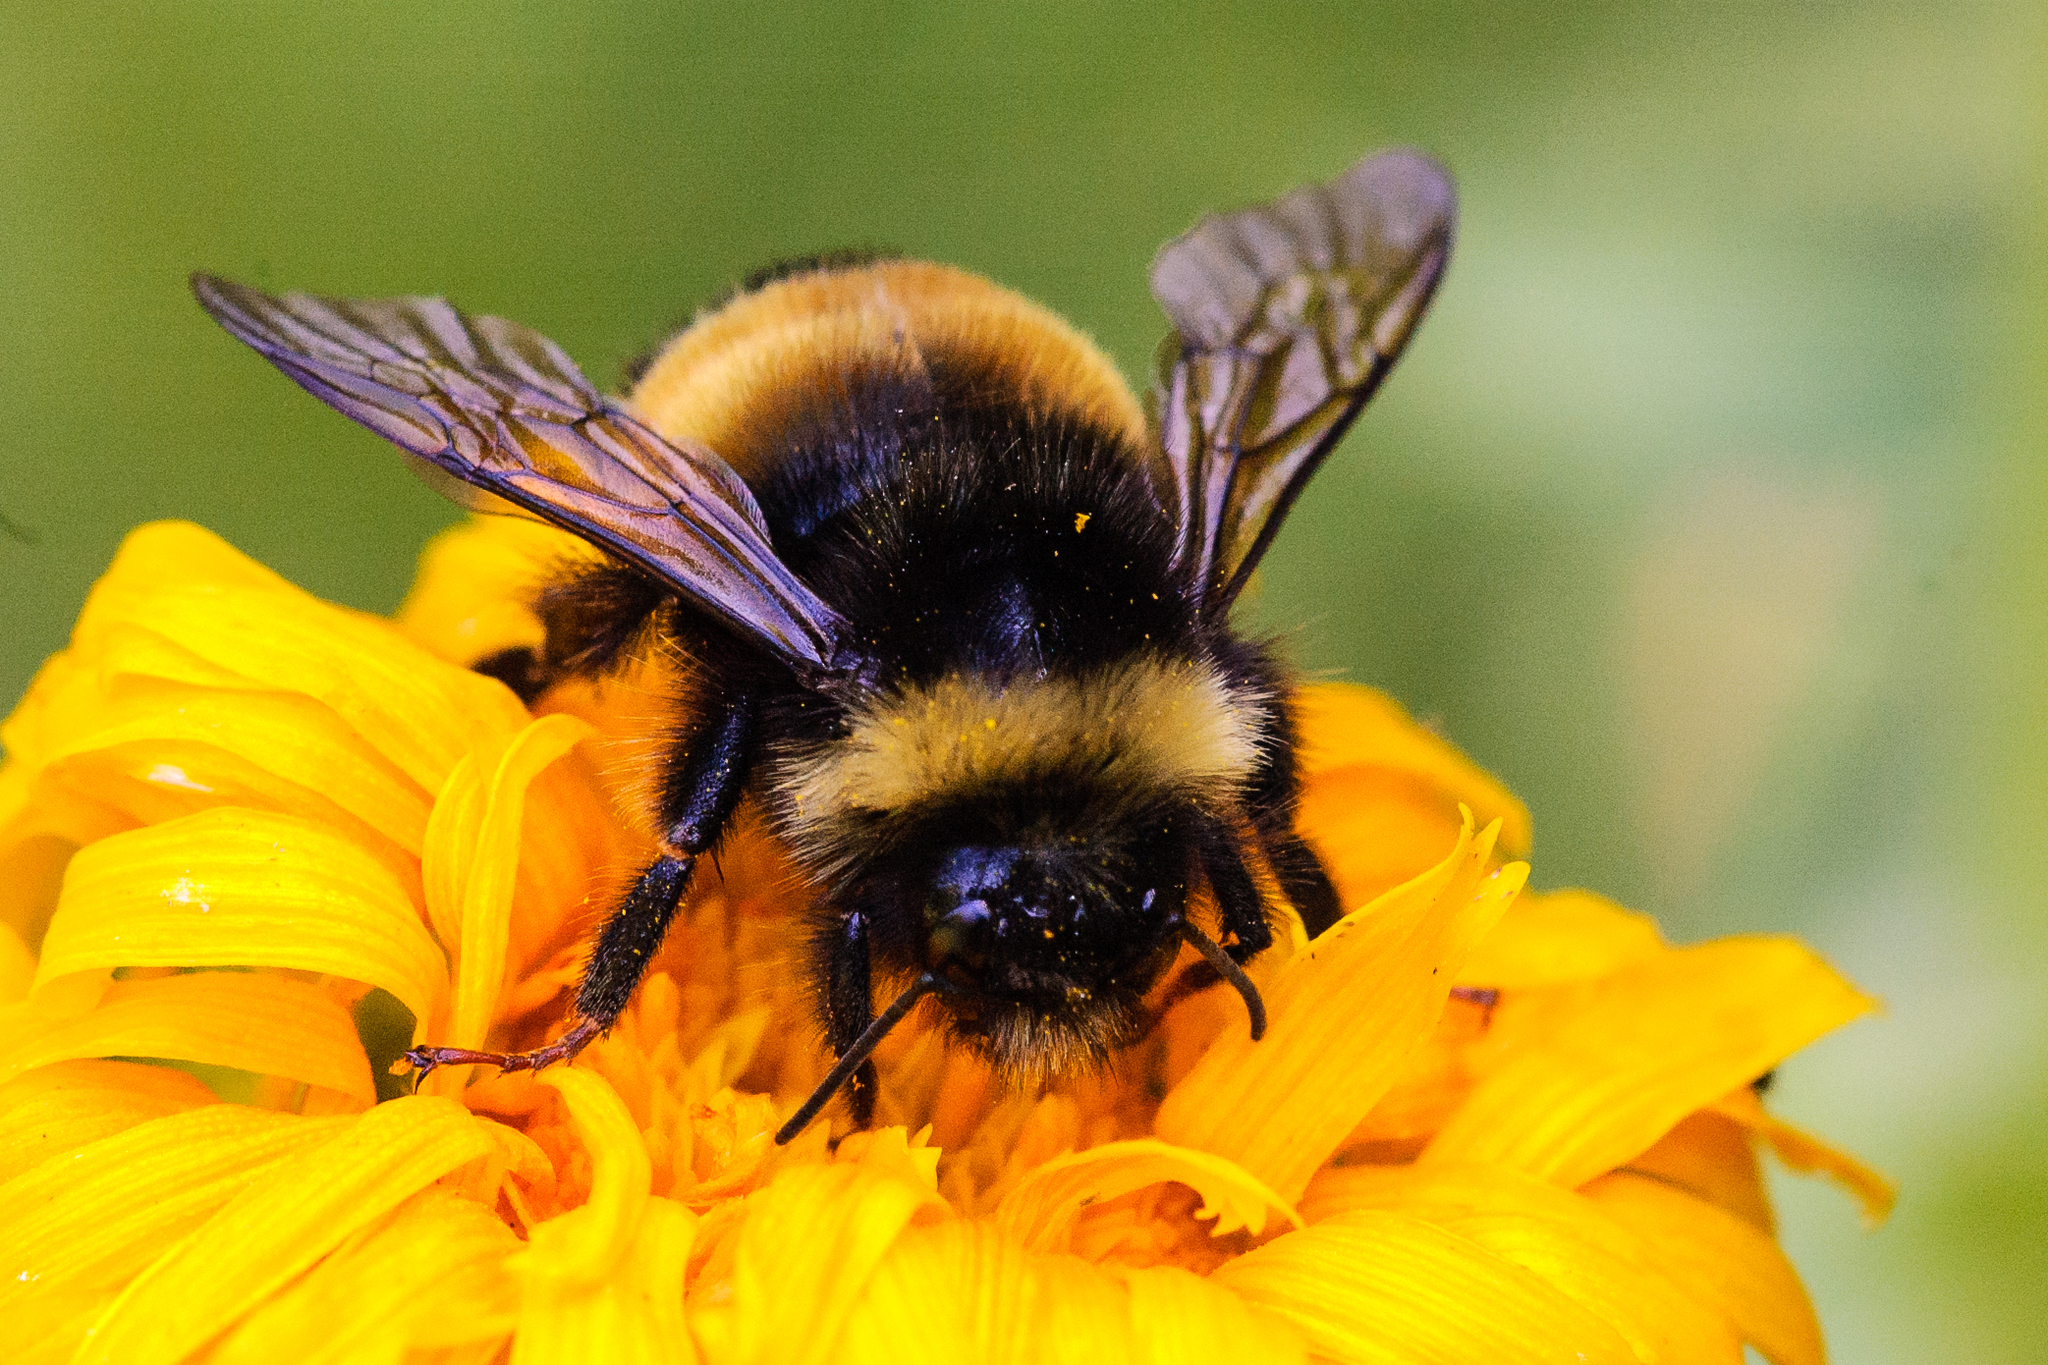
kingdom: Animalia
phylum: Arthropoda
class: Insecta
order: Hymenoptera
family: Apidae
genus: Bombus
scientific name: Bombus terricola
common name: Yellow-banded bumble bee
